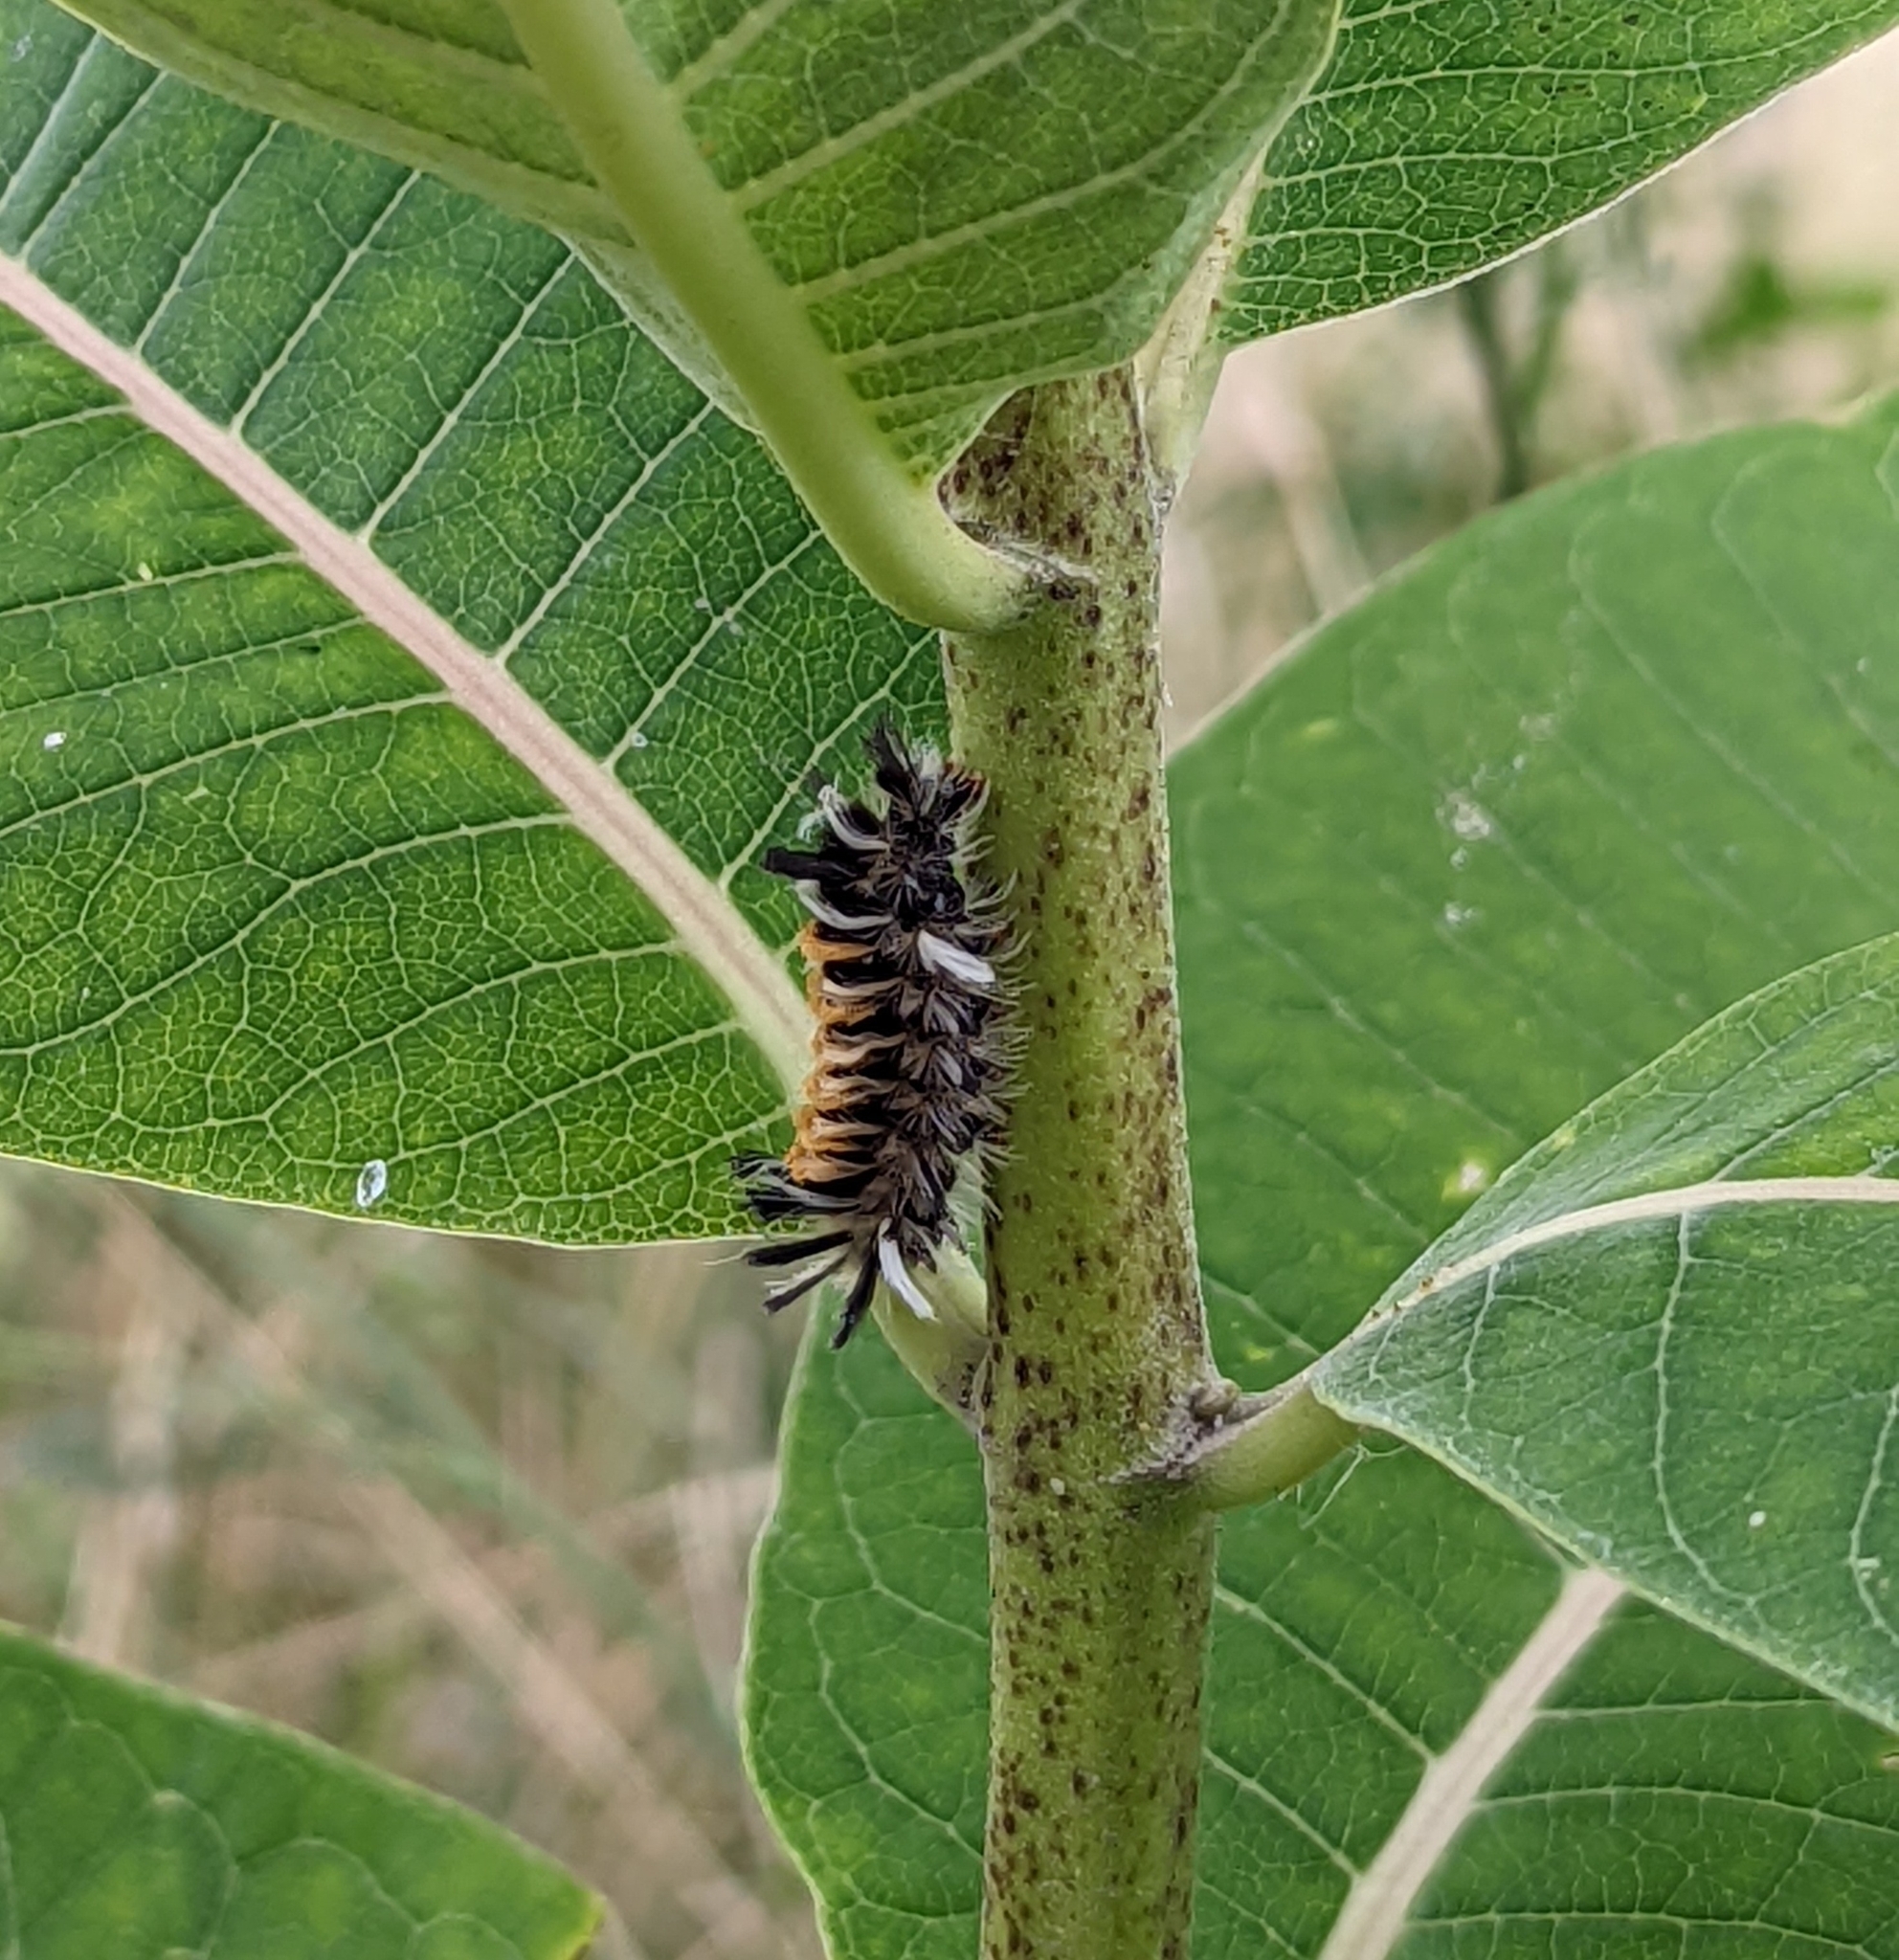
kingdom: Animalia
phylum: Arthropoda
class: Insecta
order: Lepidoptera
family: Erebidae
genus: Euchaetes
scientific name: Euchaetes egle
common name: Milkweed tussock moth
